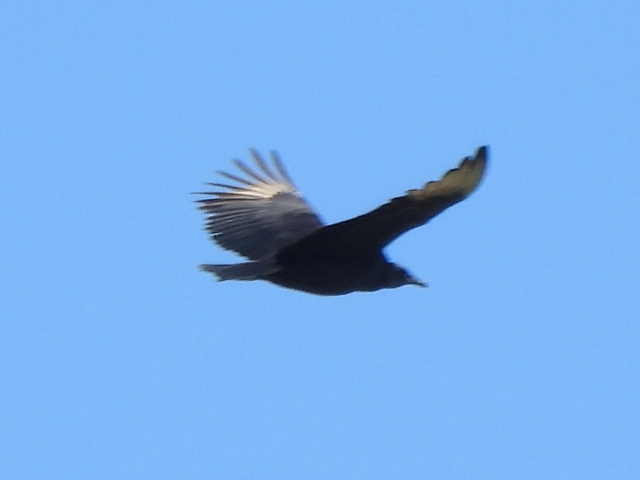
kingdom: Animalia
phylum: Chordata
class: Aves
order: Accipitriformes
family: Cathartidae
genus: Coragyps
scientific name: Coragyps atratus
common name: Black vulture
